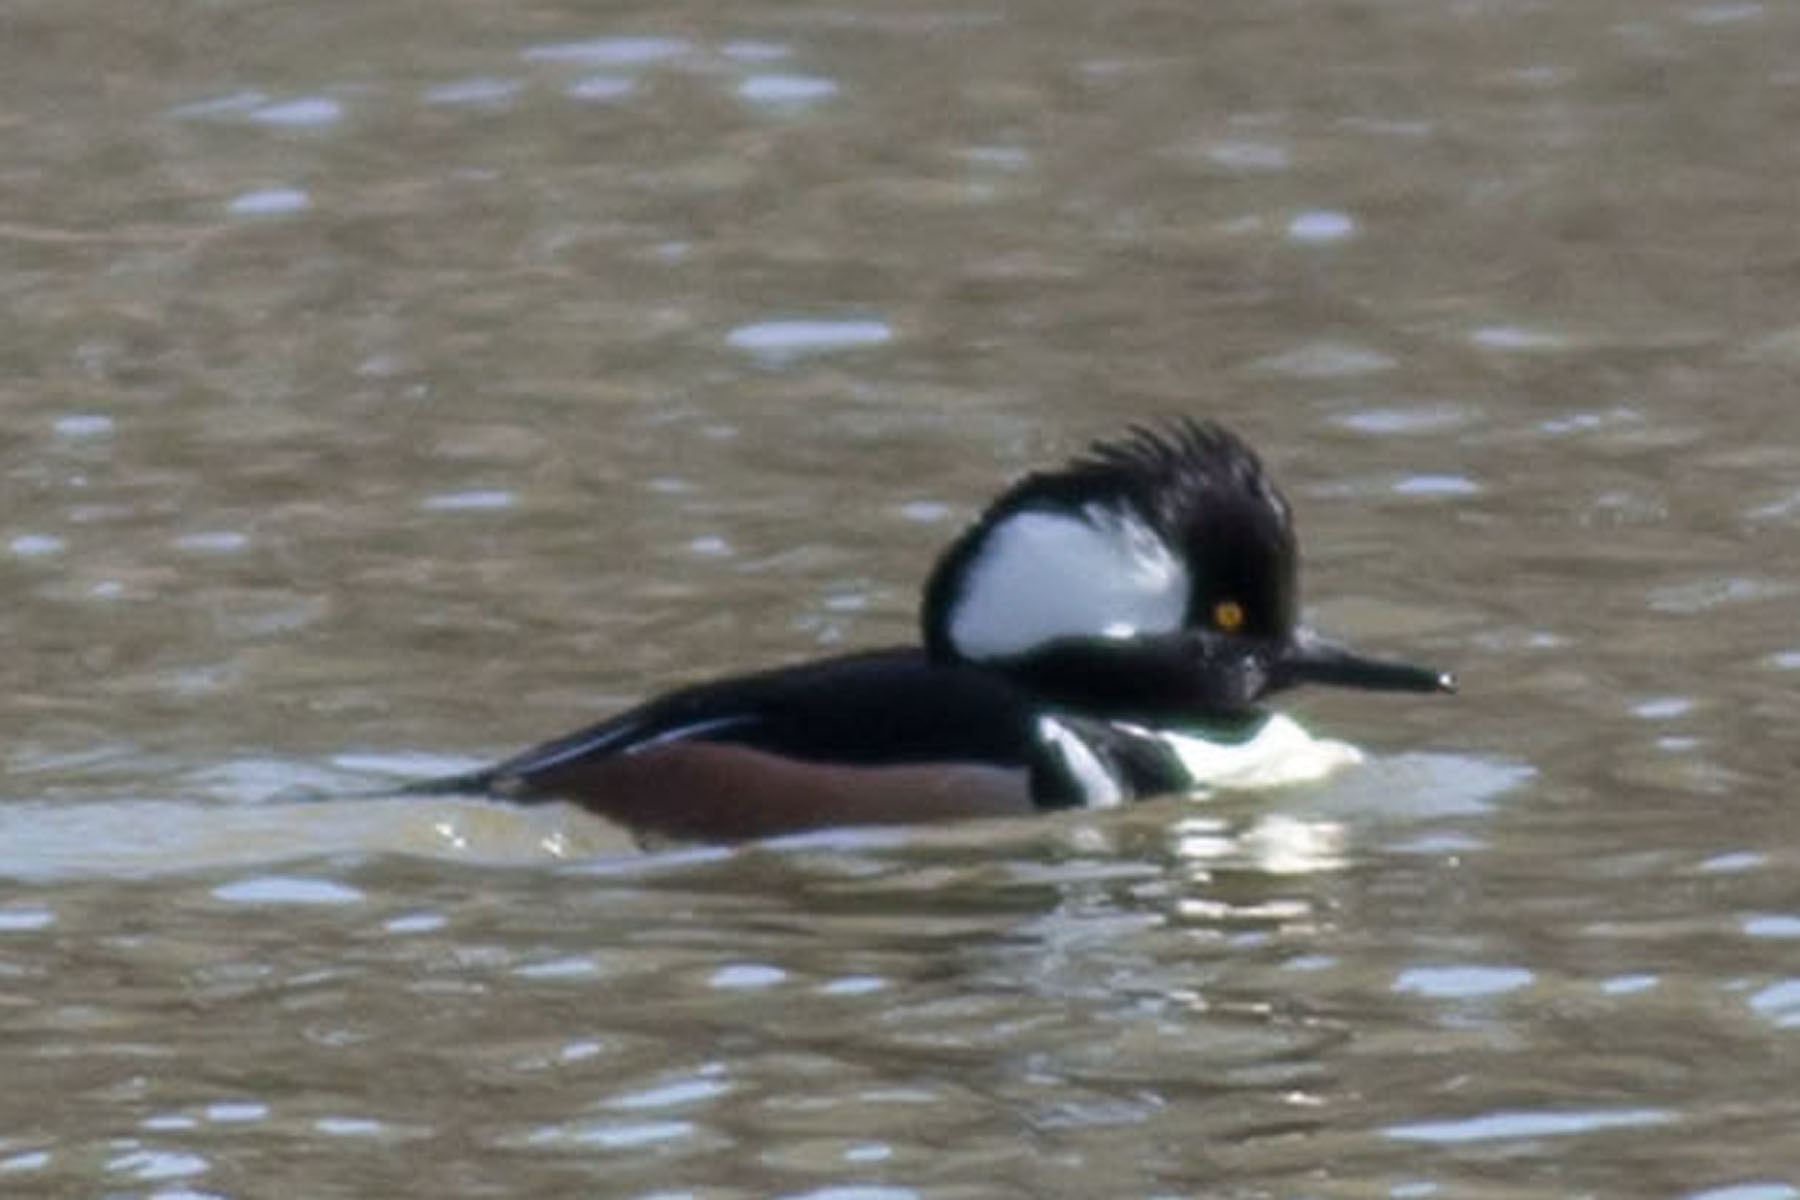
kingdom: Animalia
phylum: Chordata
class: Aves
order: Anseriformes
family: Anatidae
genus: Lophodytes
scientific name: Lophodytes cucullatus
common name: Hooded merganser
